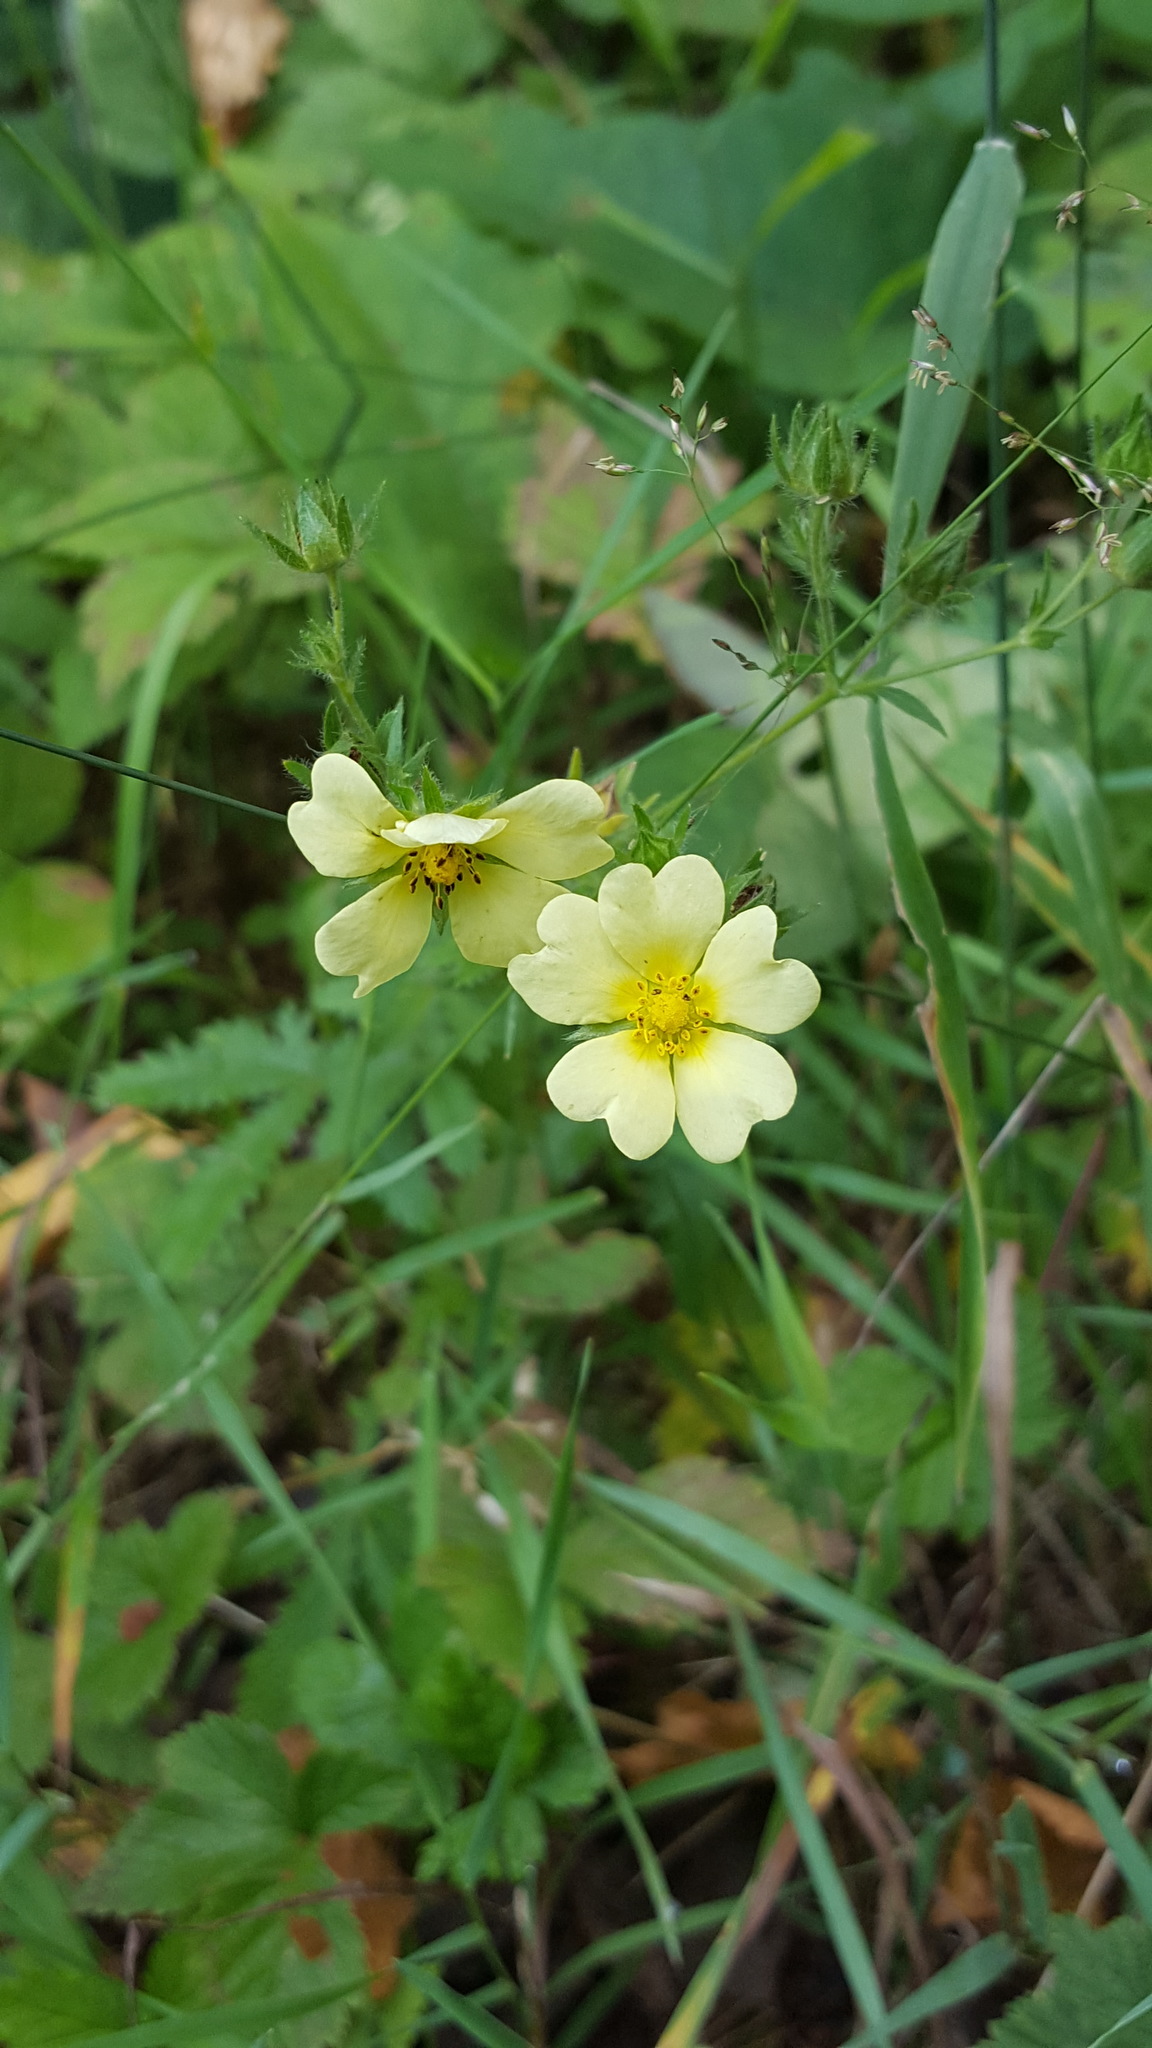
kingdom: Plantae
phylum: Tracheophyta
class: Magnoliopsida
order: Rosales
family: Rosaceae
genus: Potentilla
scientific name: Potentilla recta
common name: Sulphur cinquefoil
